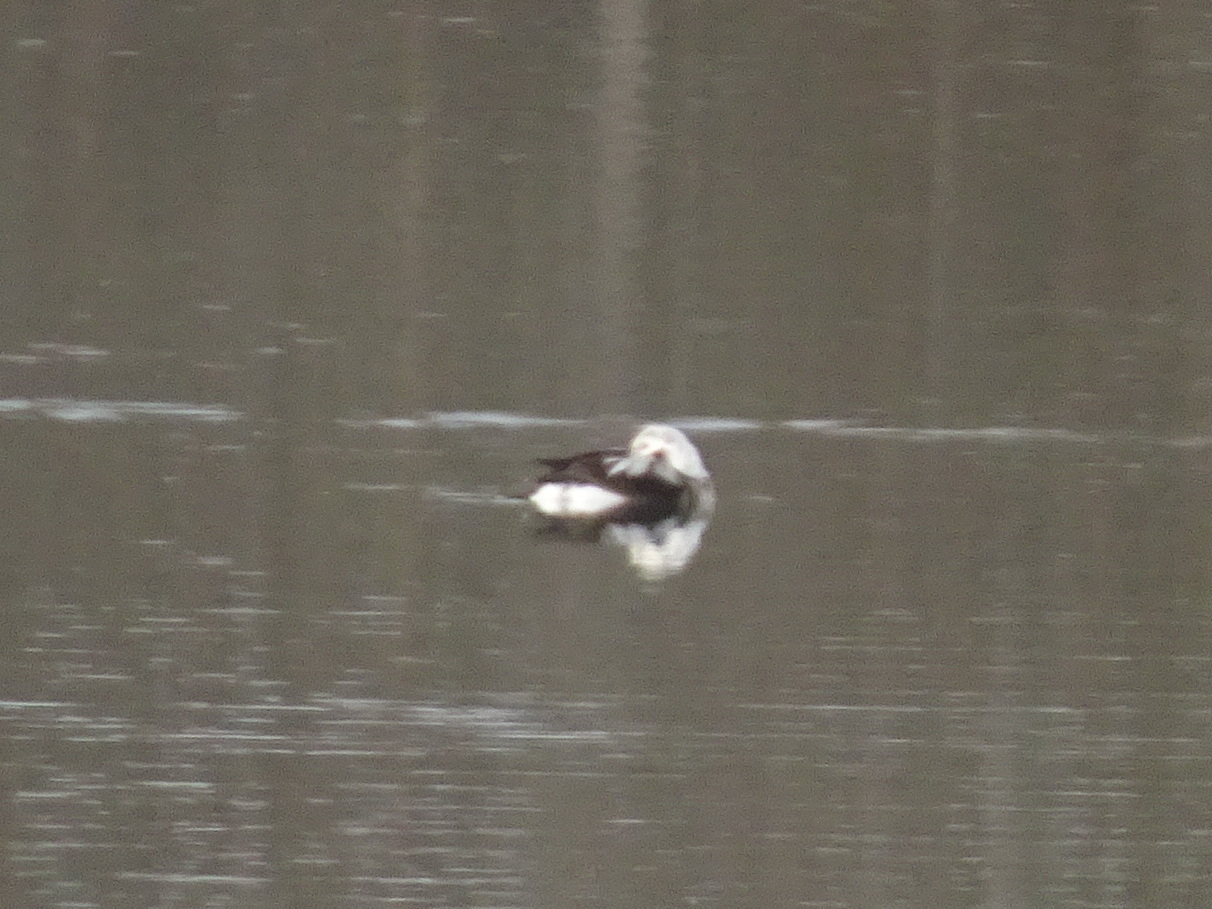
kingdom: Animalia
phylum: Chordata
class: Aves
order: Anseriformes
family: Anatidae
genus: Clangula
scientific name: Clangula hyemalis
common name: Long-tailed duck
